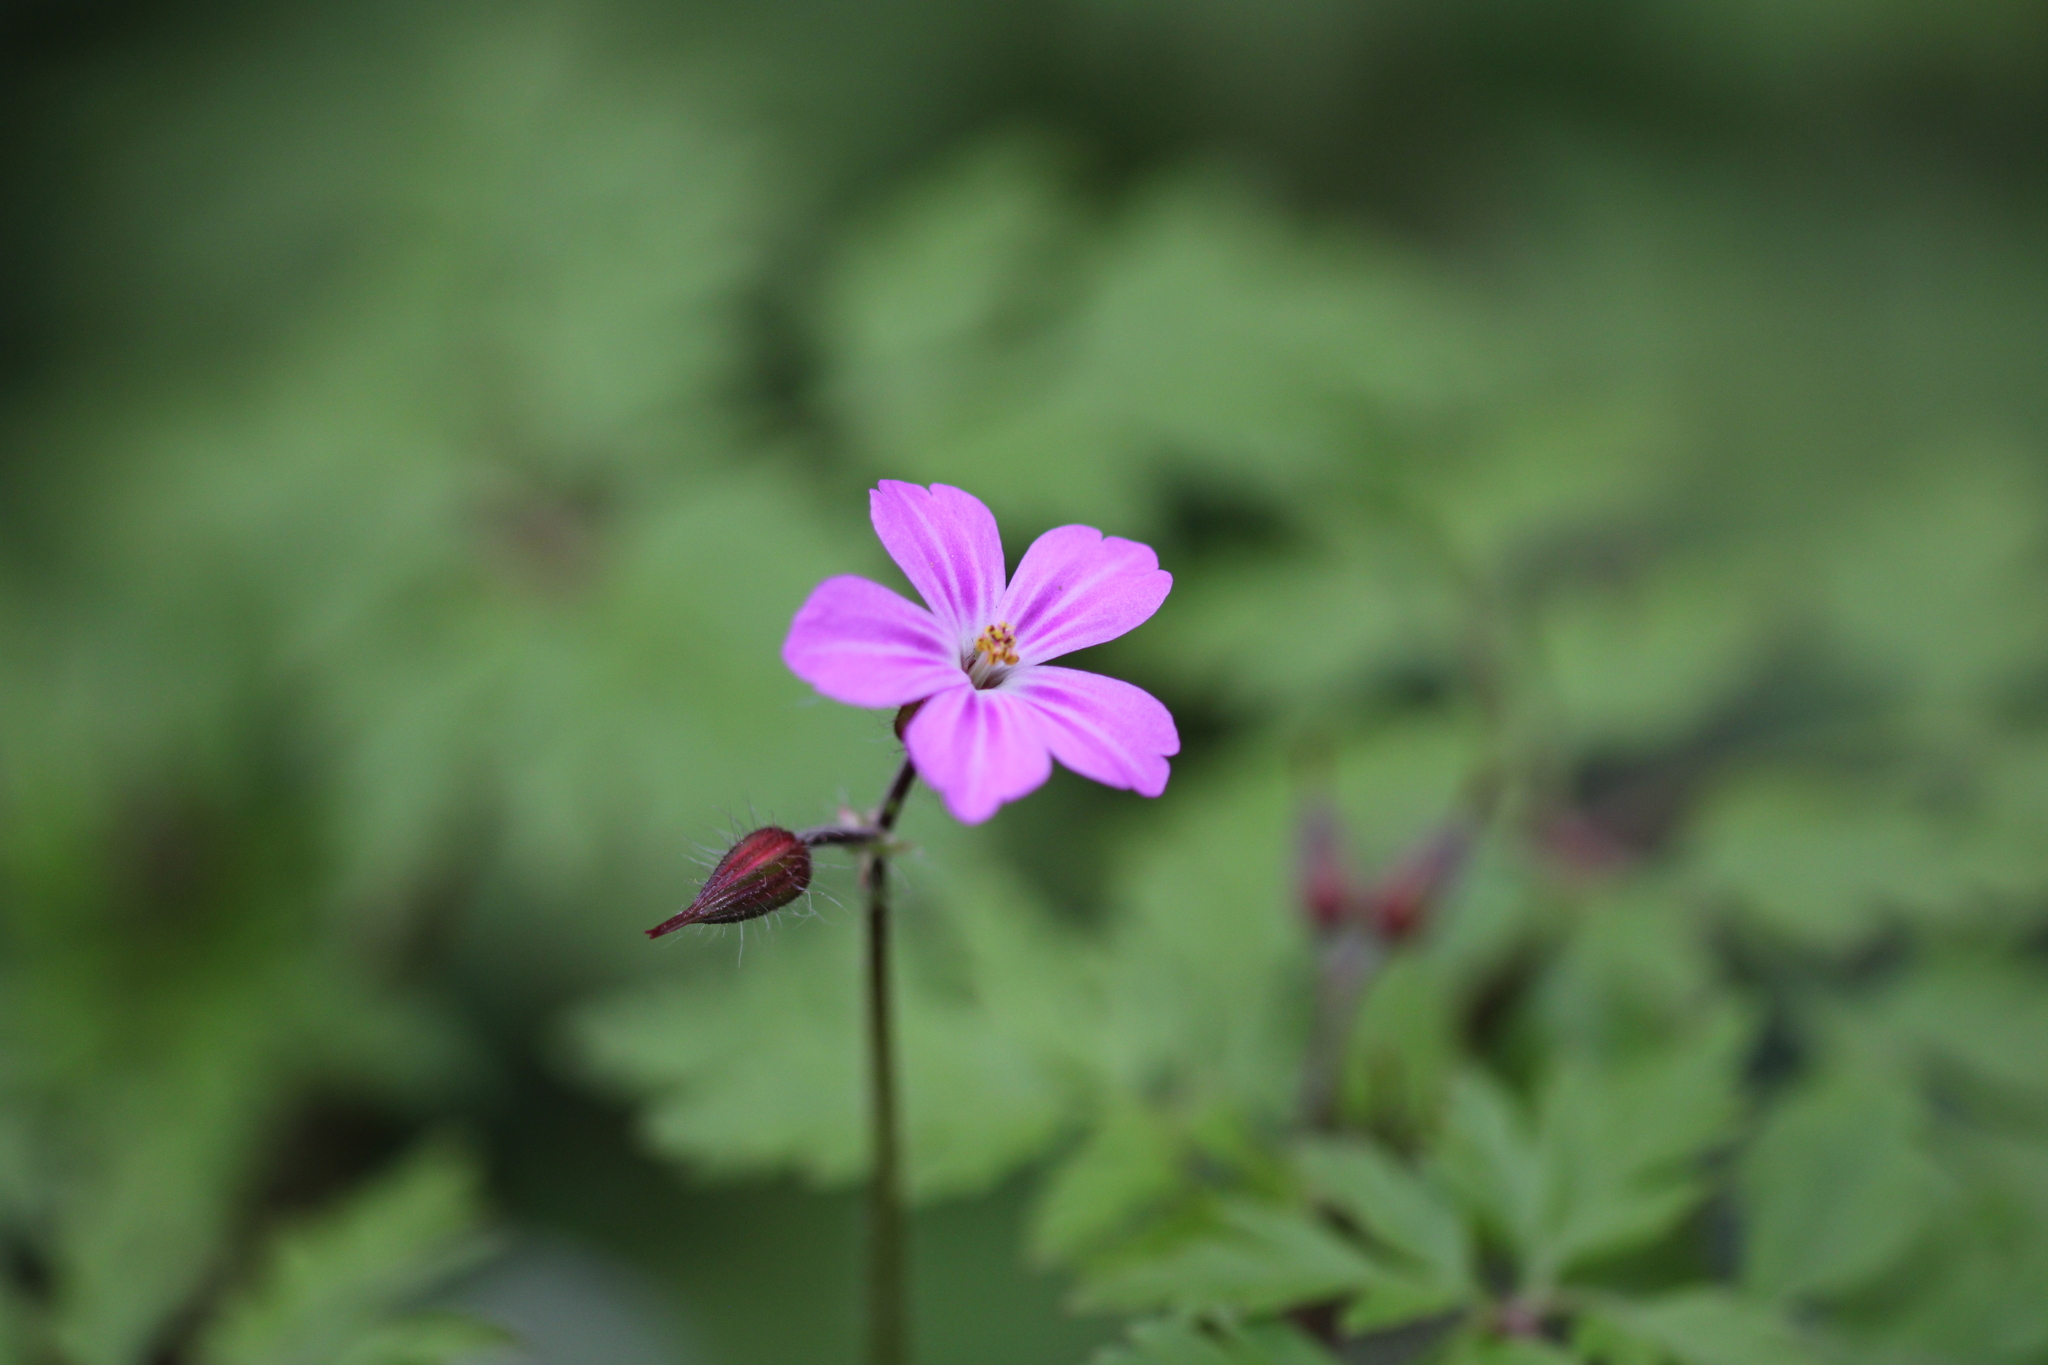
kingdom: Plantae
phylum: Tracheophyta
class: Magnoliopsida
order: Geraniales
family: Geraniaceae
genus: Geranium
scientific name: Geranium robertianum
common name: Herb-robert
